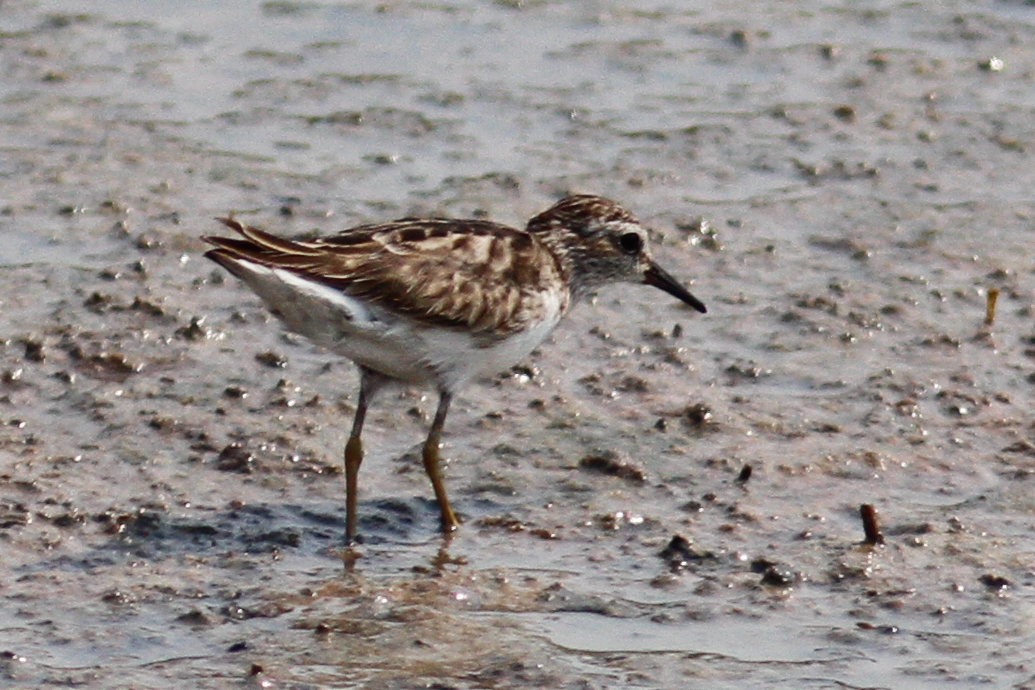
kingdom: Animalia
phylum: Chordata
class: Aves
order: Charadriiformes
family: Scolopacidae
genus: Calidris
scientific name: Calidris subminuta
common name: Long-toed stint
